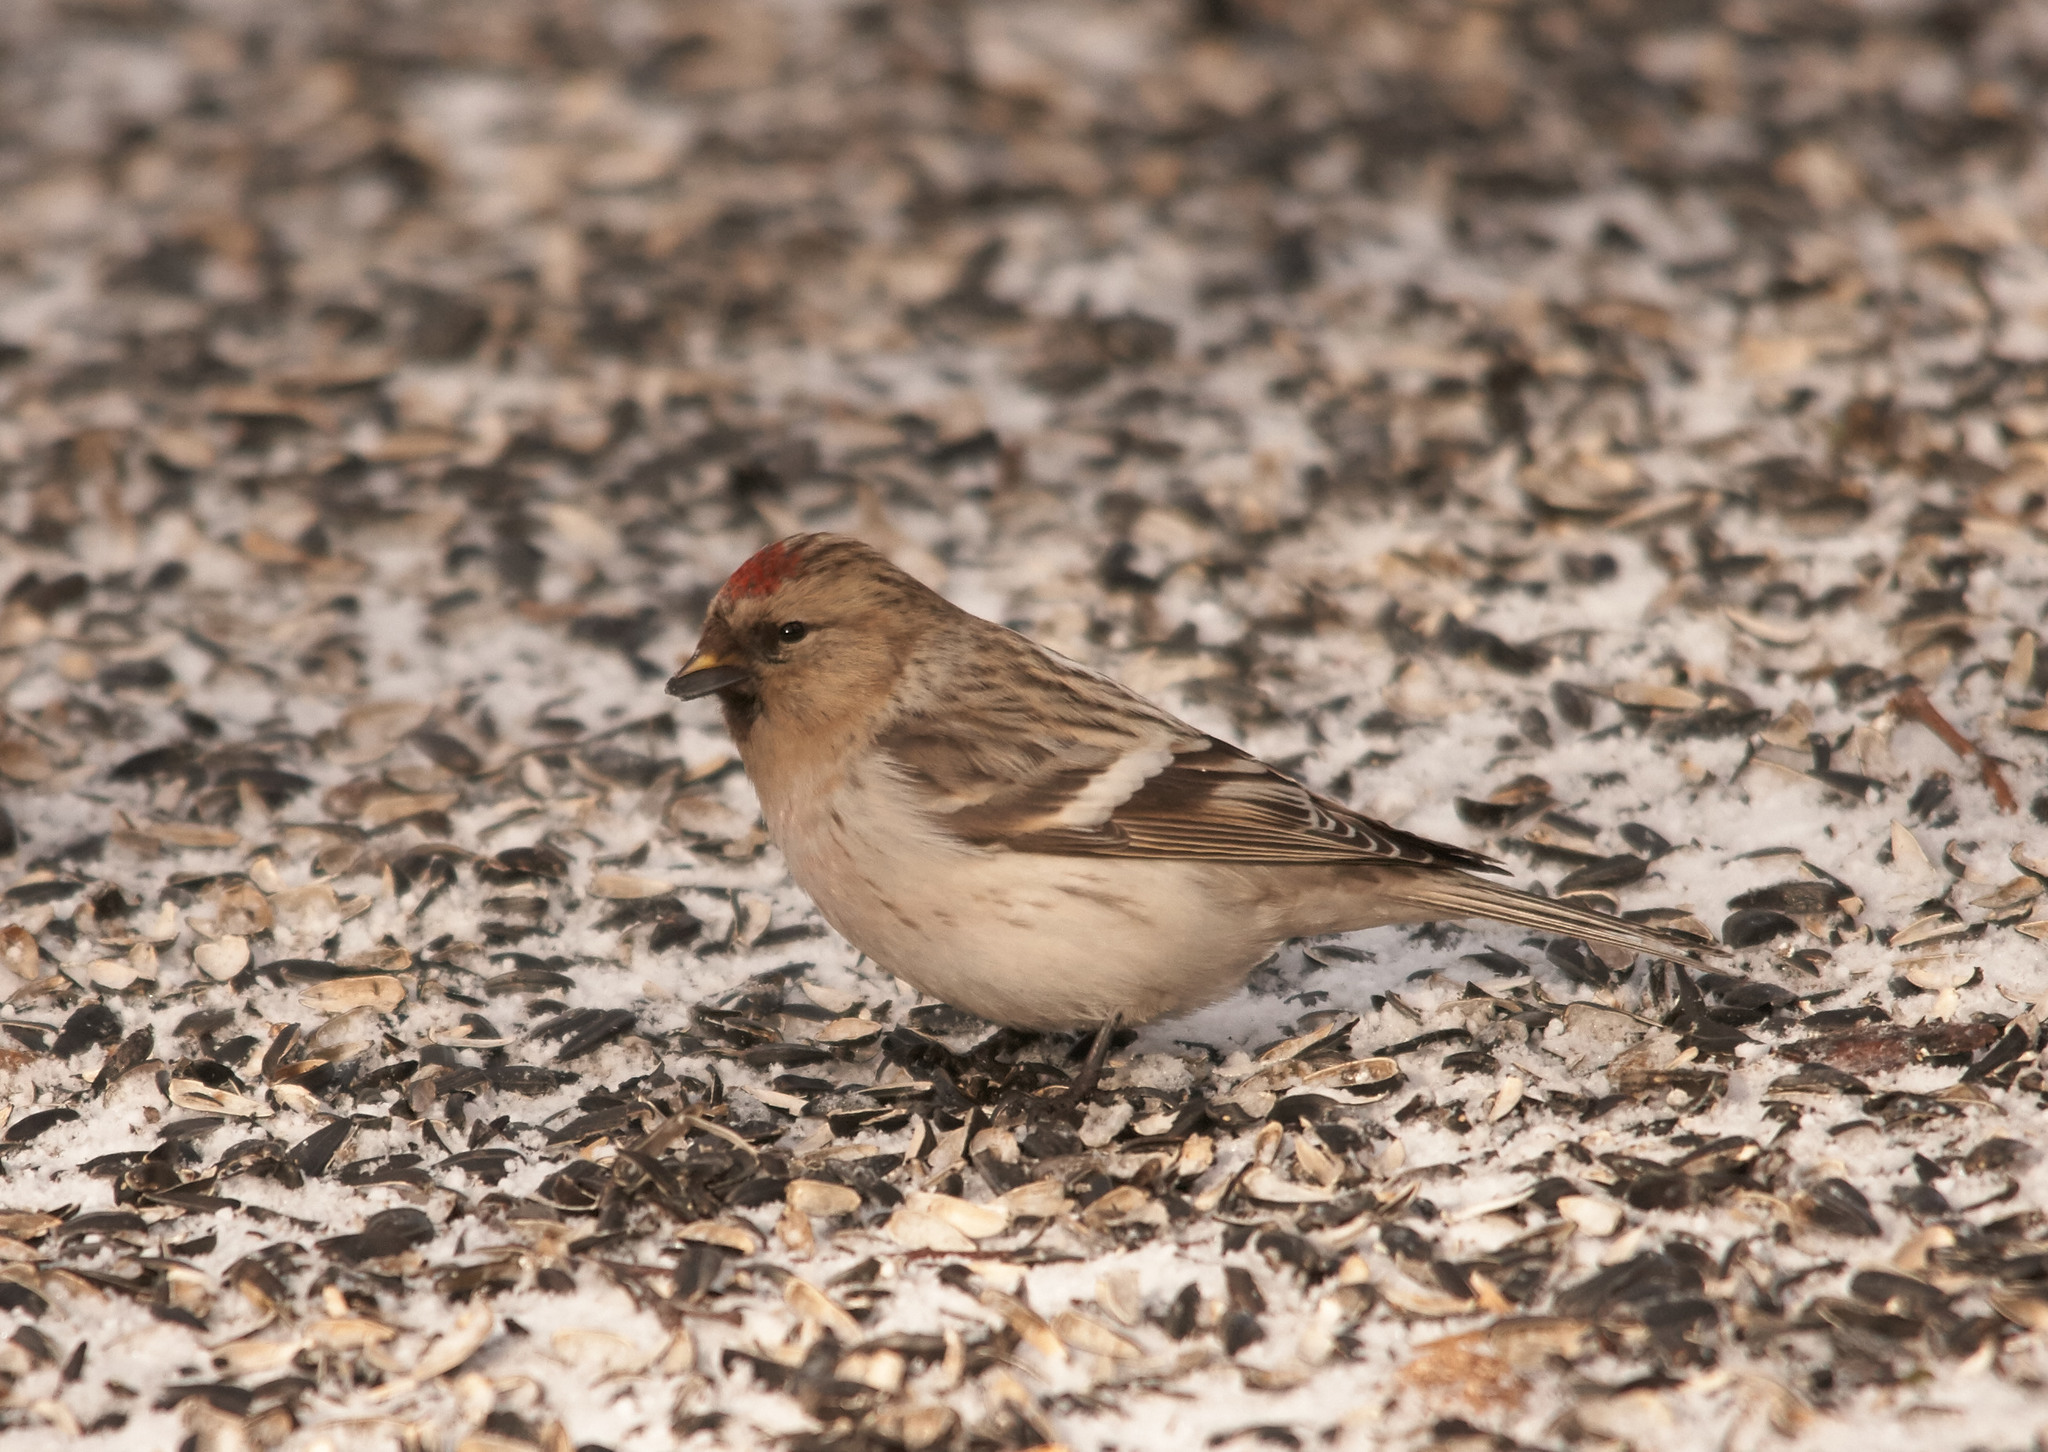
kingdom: Animalia
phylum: Chordata
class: Aves
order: Passeriformes
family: Fringillidae
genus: Acanthis
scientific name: Acanthis hornemanni
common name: Arctic redpoll
